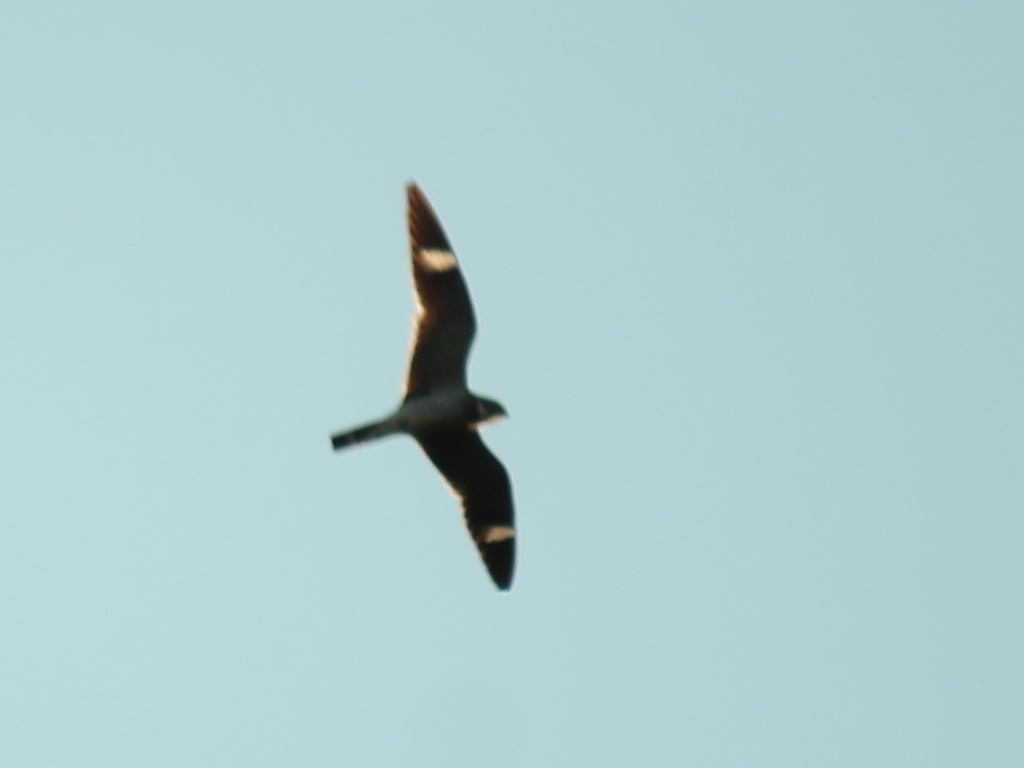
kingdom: Animalia
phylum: Chordata
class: Aves
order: Caprimulgiformes
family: Caprimulgidae
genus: Chordeiles
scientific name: Chordeiles minor
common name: Common nighthawk
